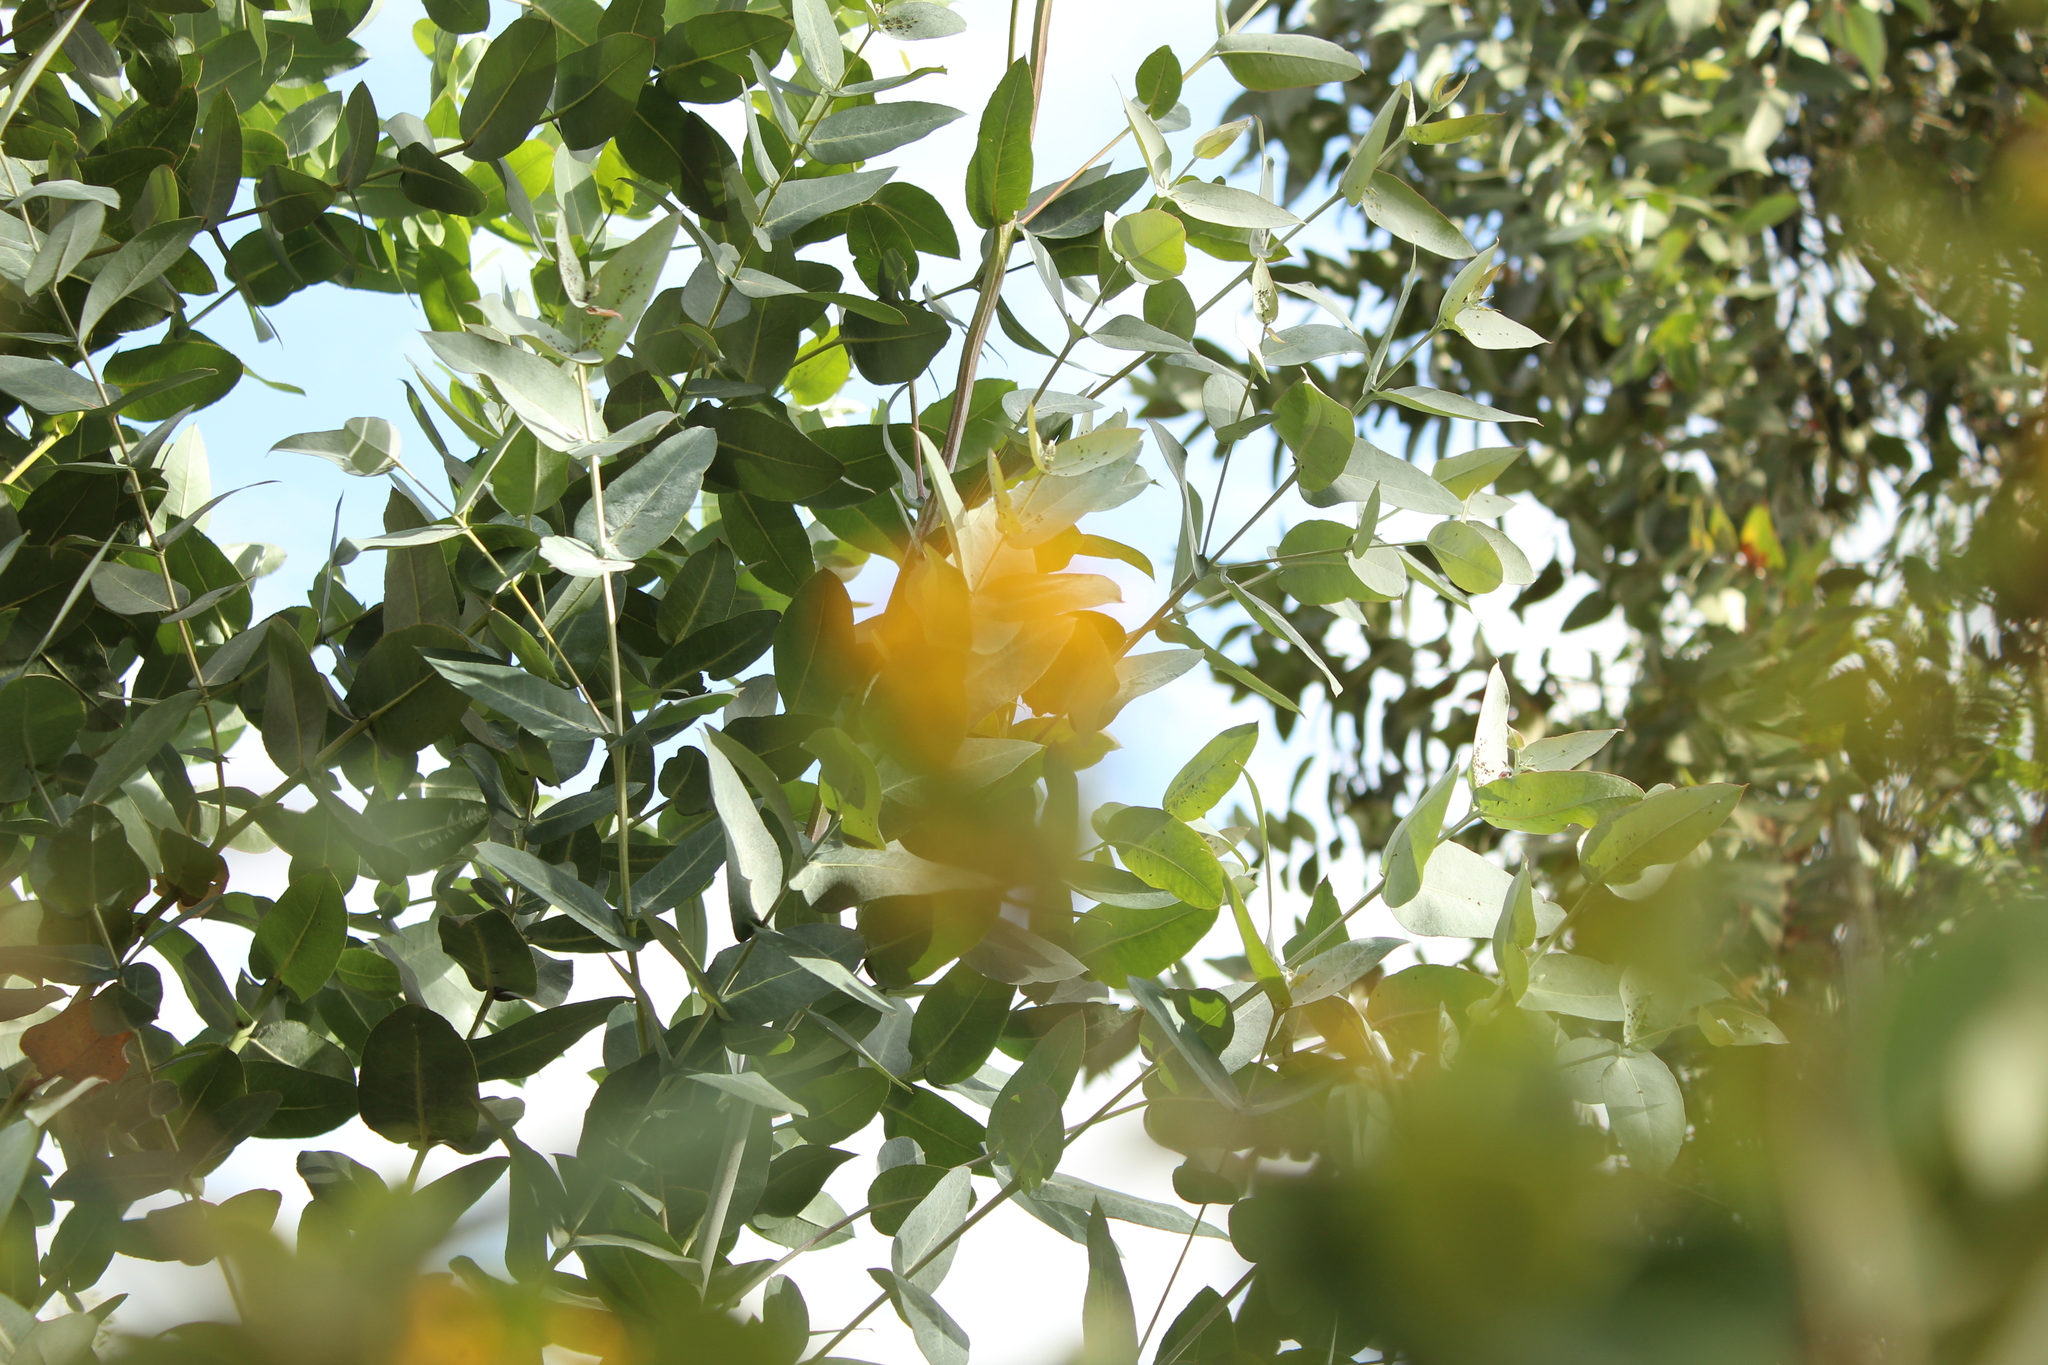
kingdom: Plantae
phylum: Tracheophyta
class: Magnoliopsida
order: Myrtales
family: Myrtaceae
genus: Eucalyptus
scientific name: Eucalyptus globulus
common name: Southern blue-gum
